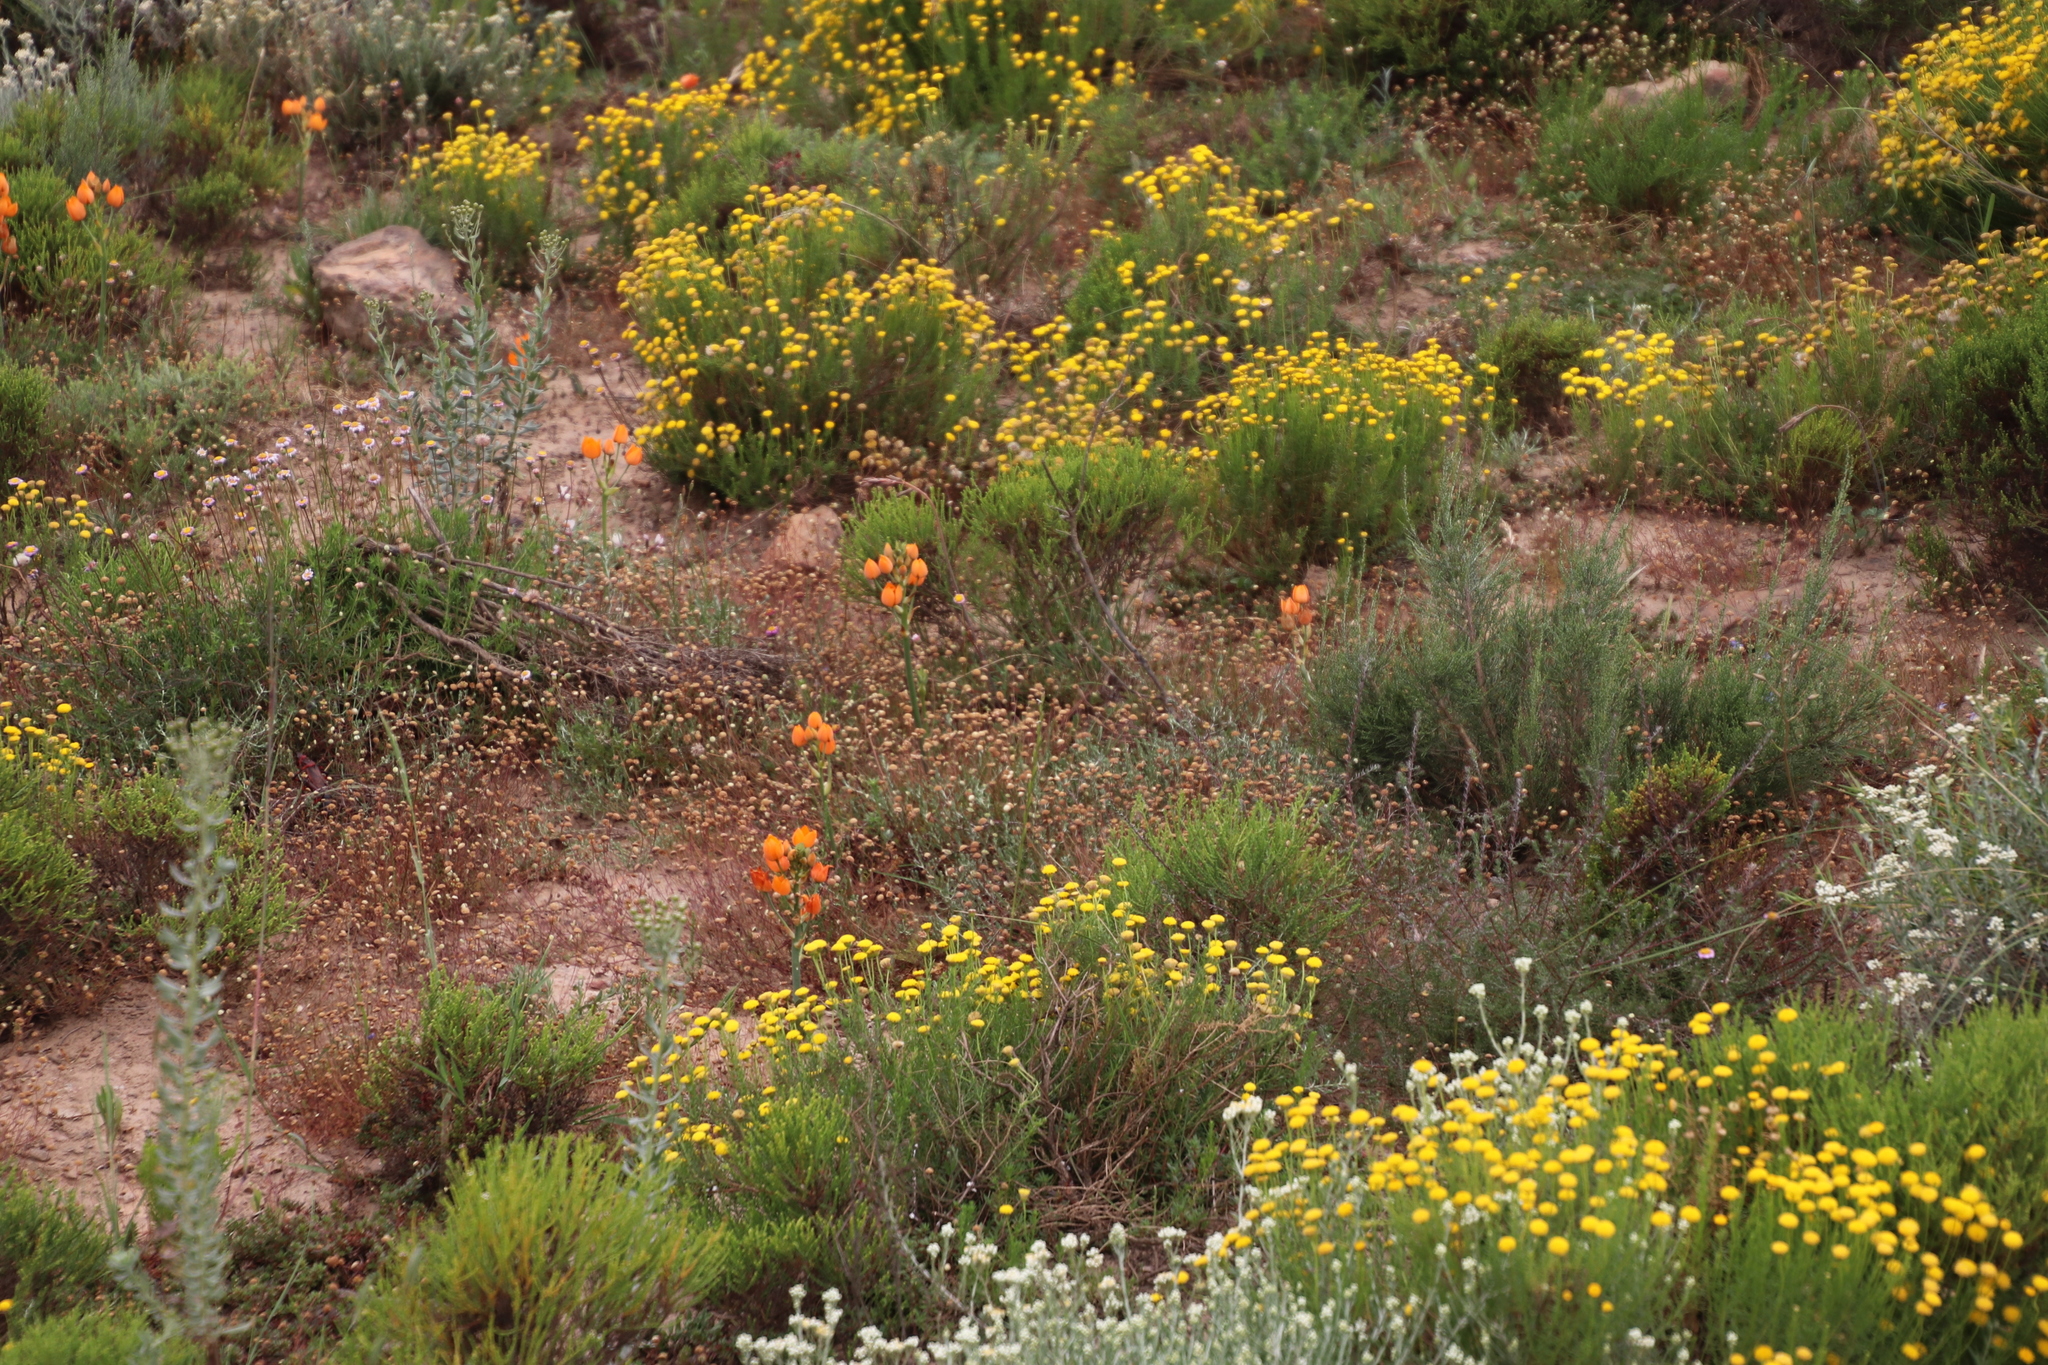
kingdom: Plantae
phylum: Tracheophyta
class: Liliopsida
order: Asparagales
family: Asparagaceae
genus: Ornithogalum
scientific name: Ornithogalum dubium
